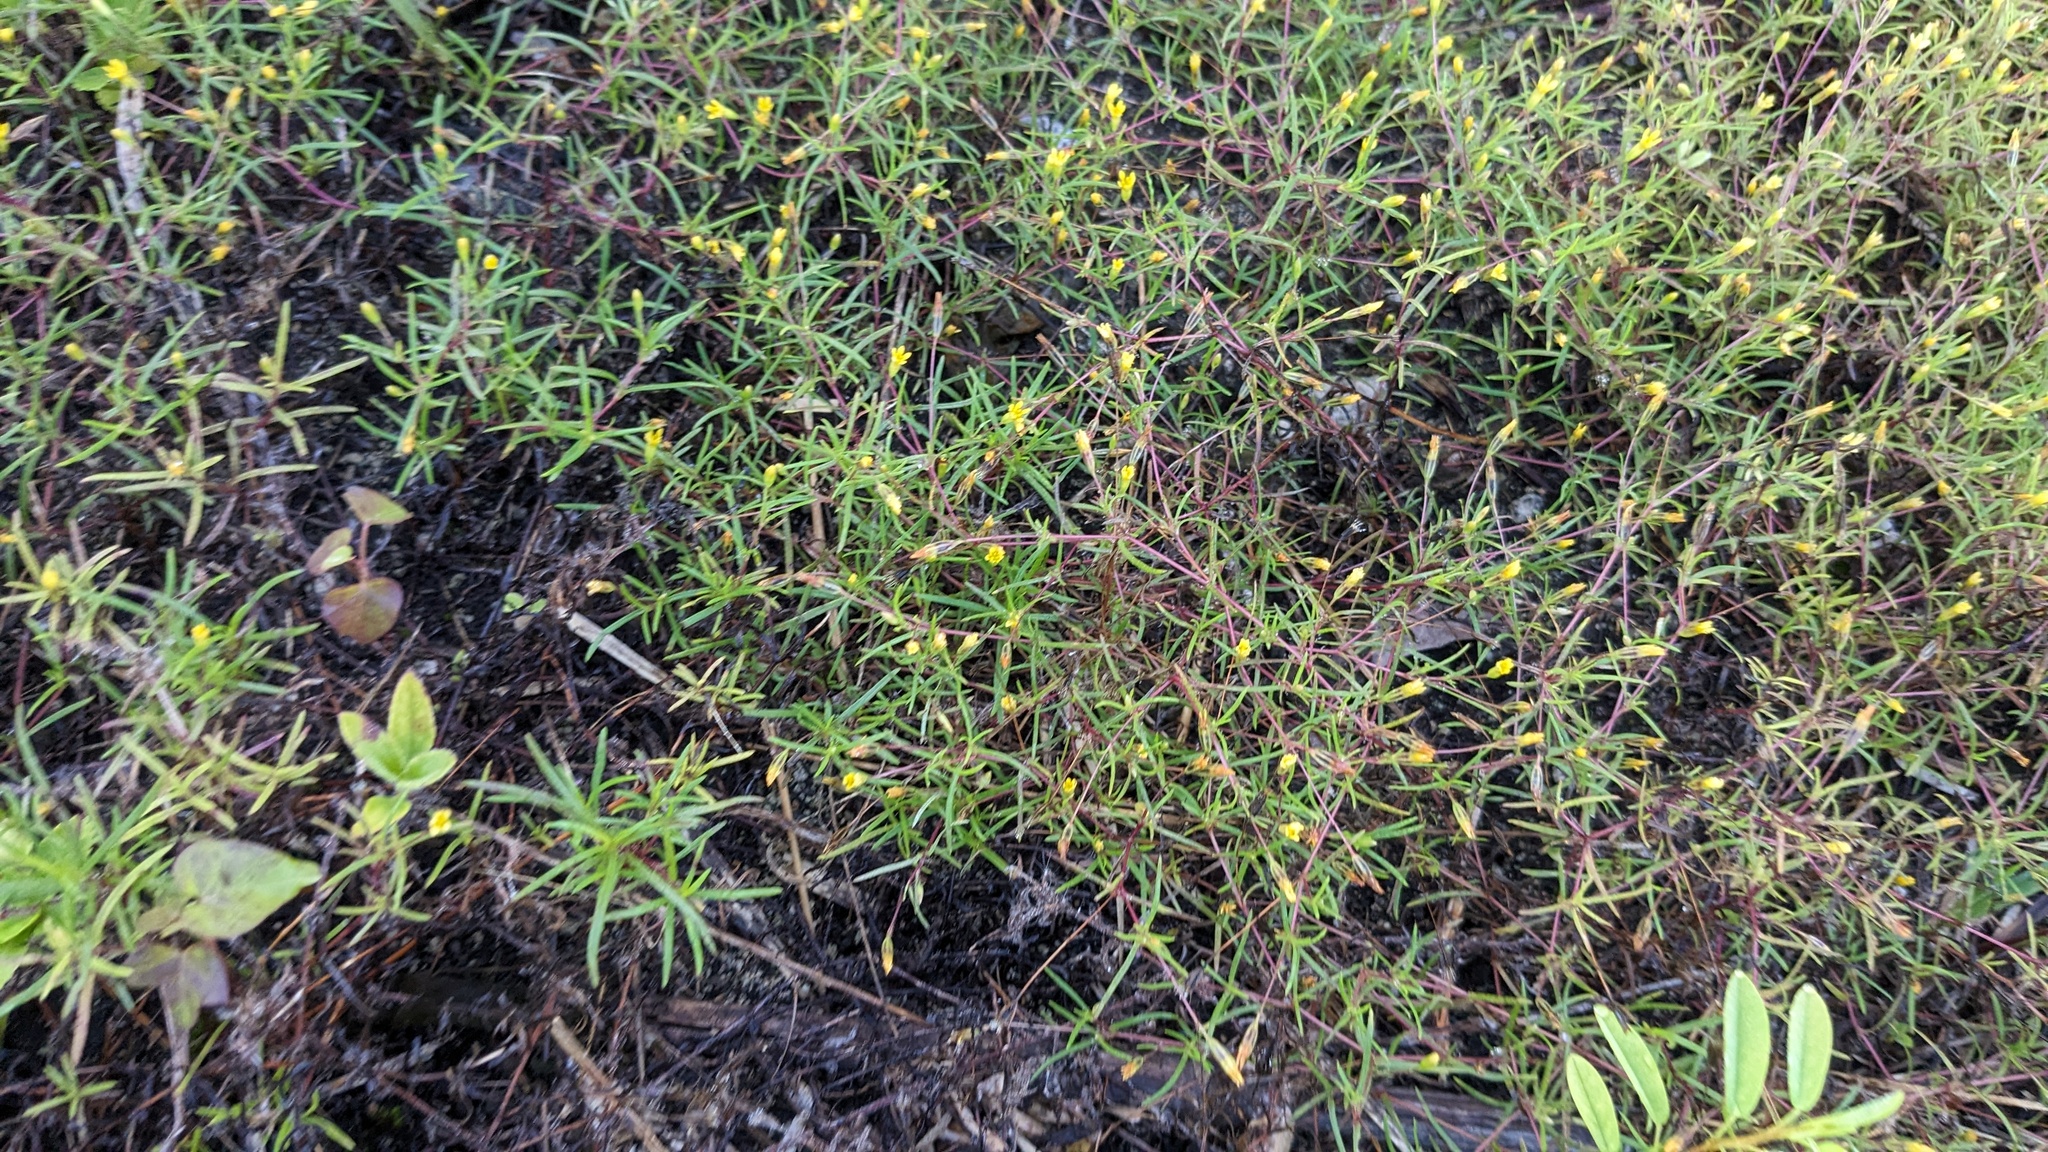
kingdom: Plantae
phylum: Tracheophyta
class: Magnoliopsida
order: Asterales
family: Asteraceae
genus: Pectis
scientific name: Pectis glaucescens
